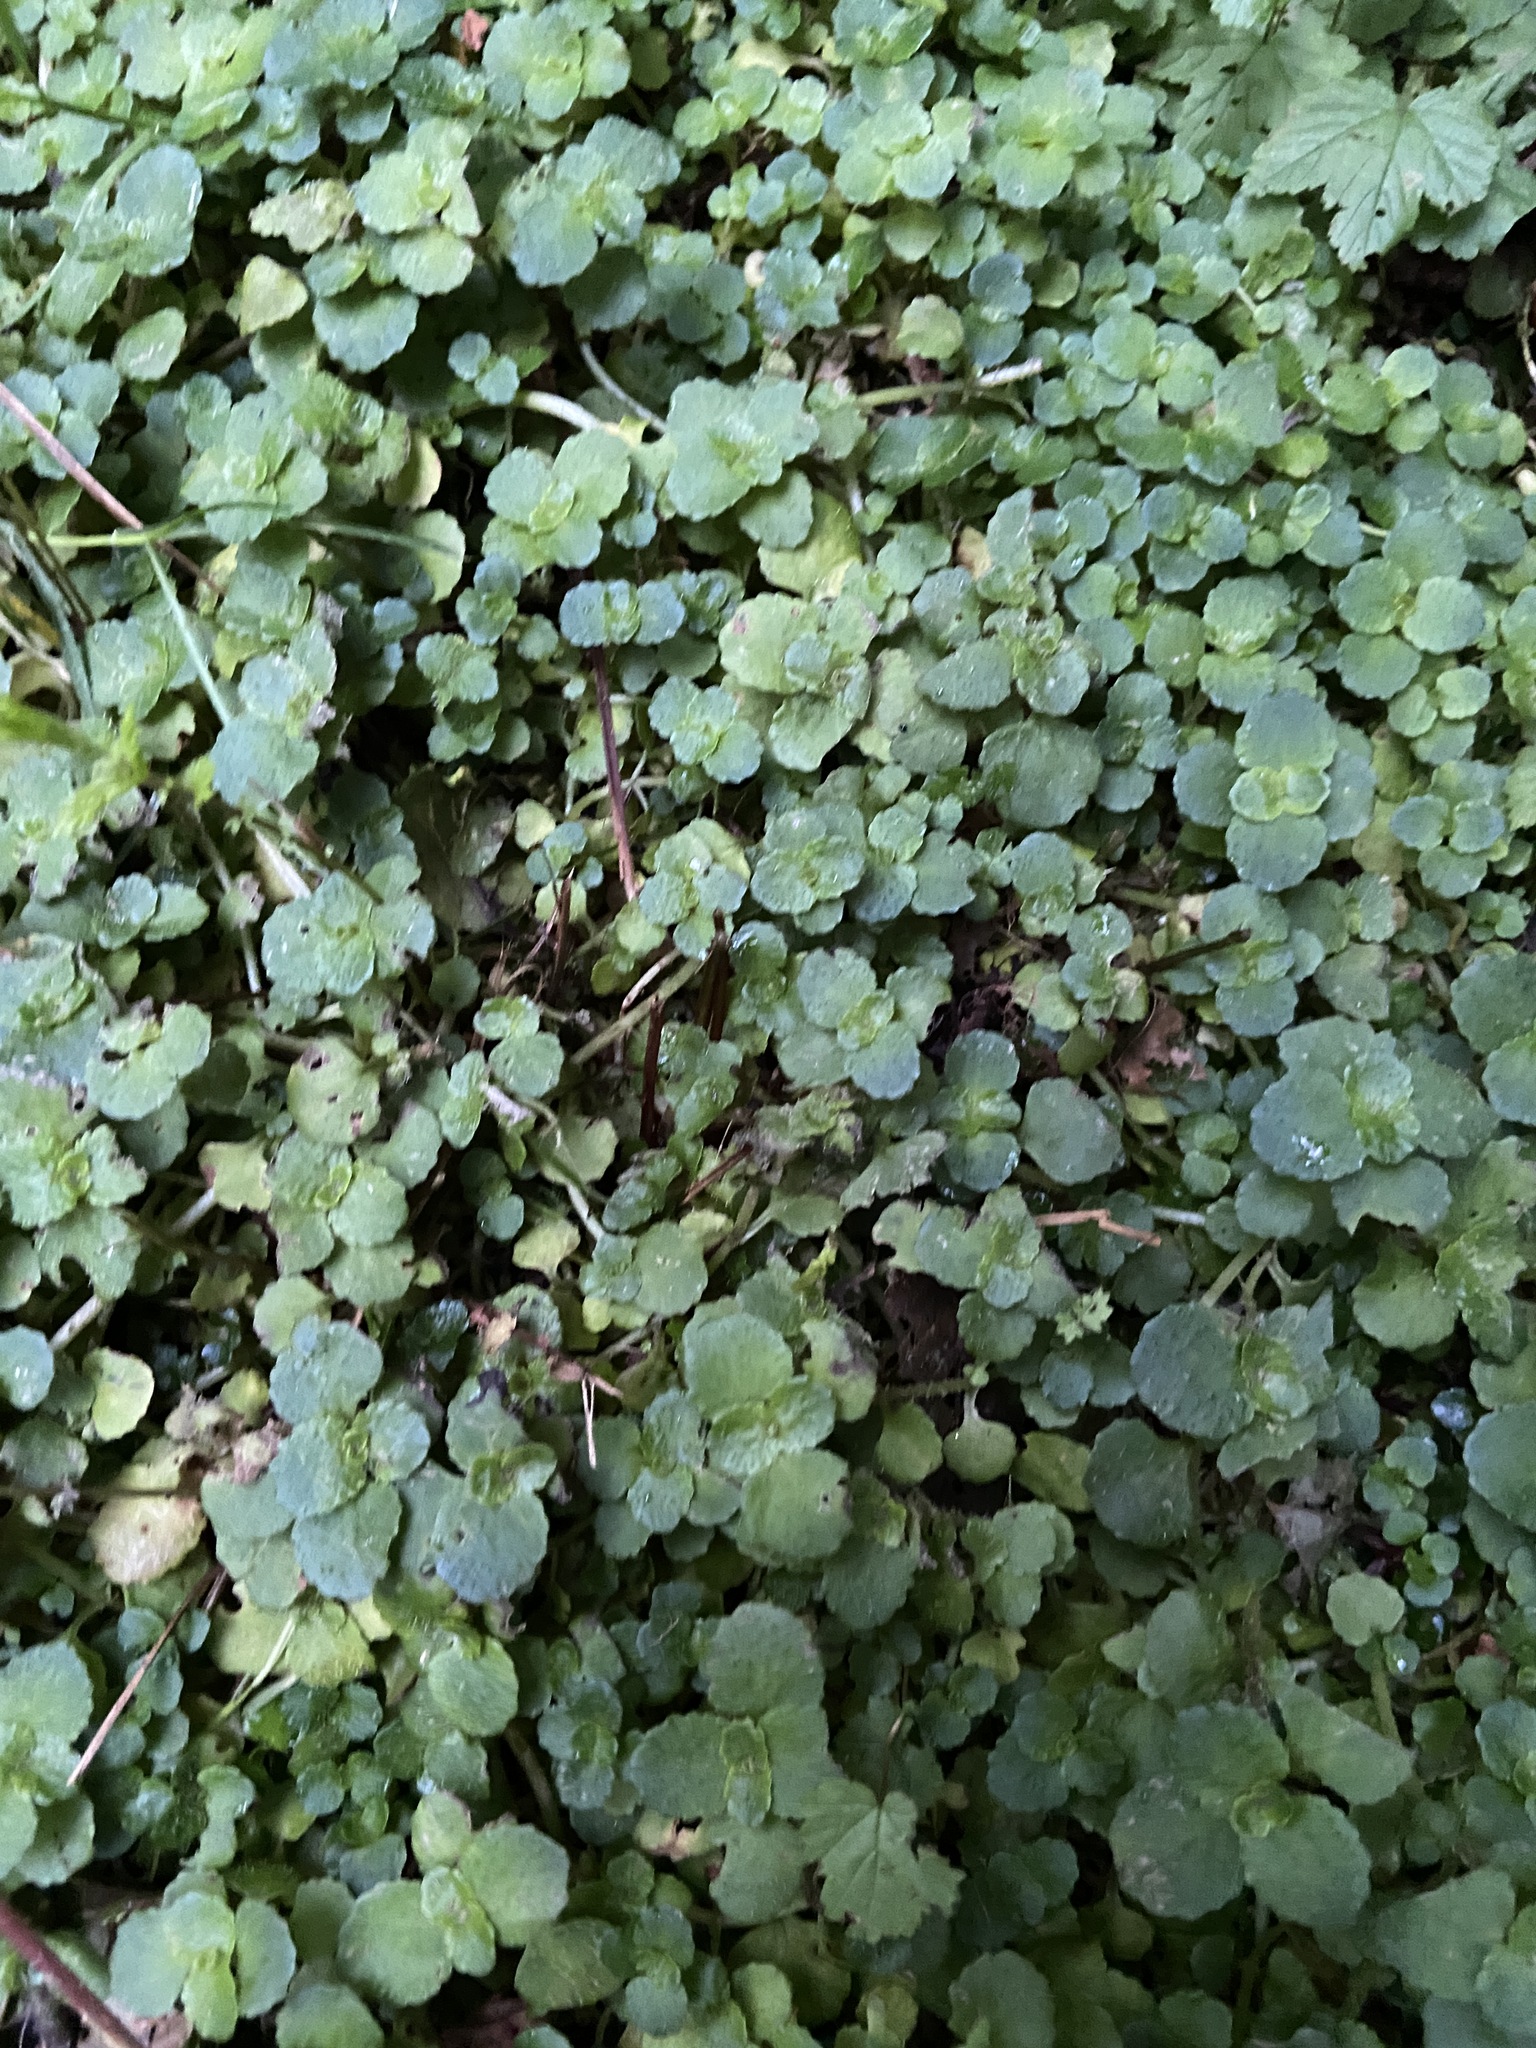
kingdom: Plantae
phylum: Tracheophyta
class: Magnoliopsida
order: Saxifragales
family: Saxifragaceae
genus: Chrysosplenium
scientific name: Chrysosplenium oppositifolium
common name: Opposite-leaved golden-saxifrage
